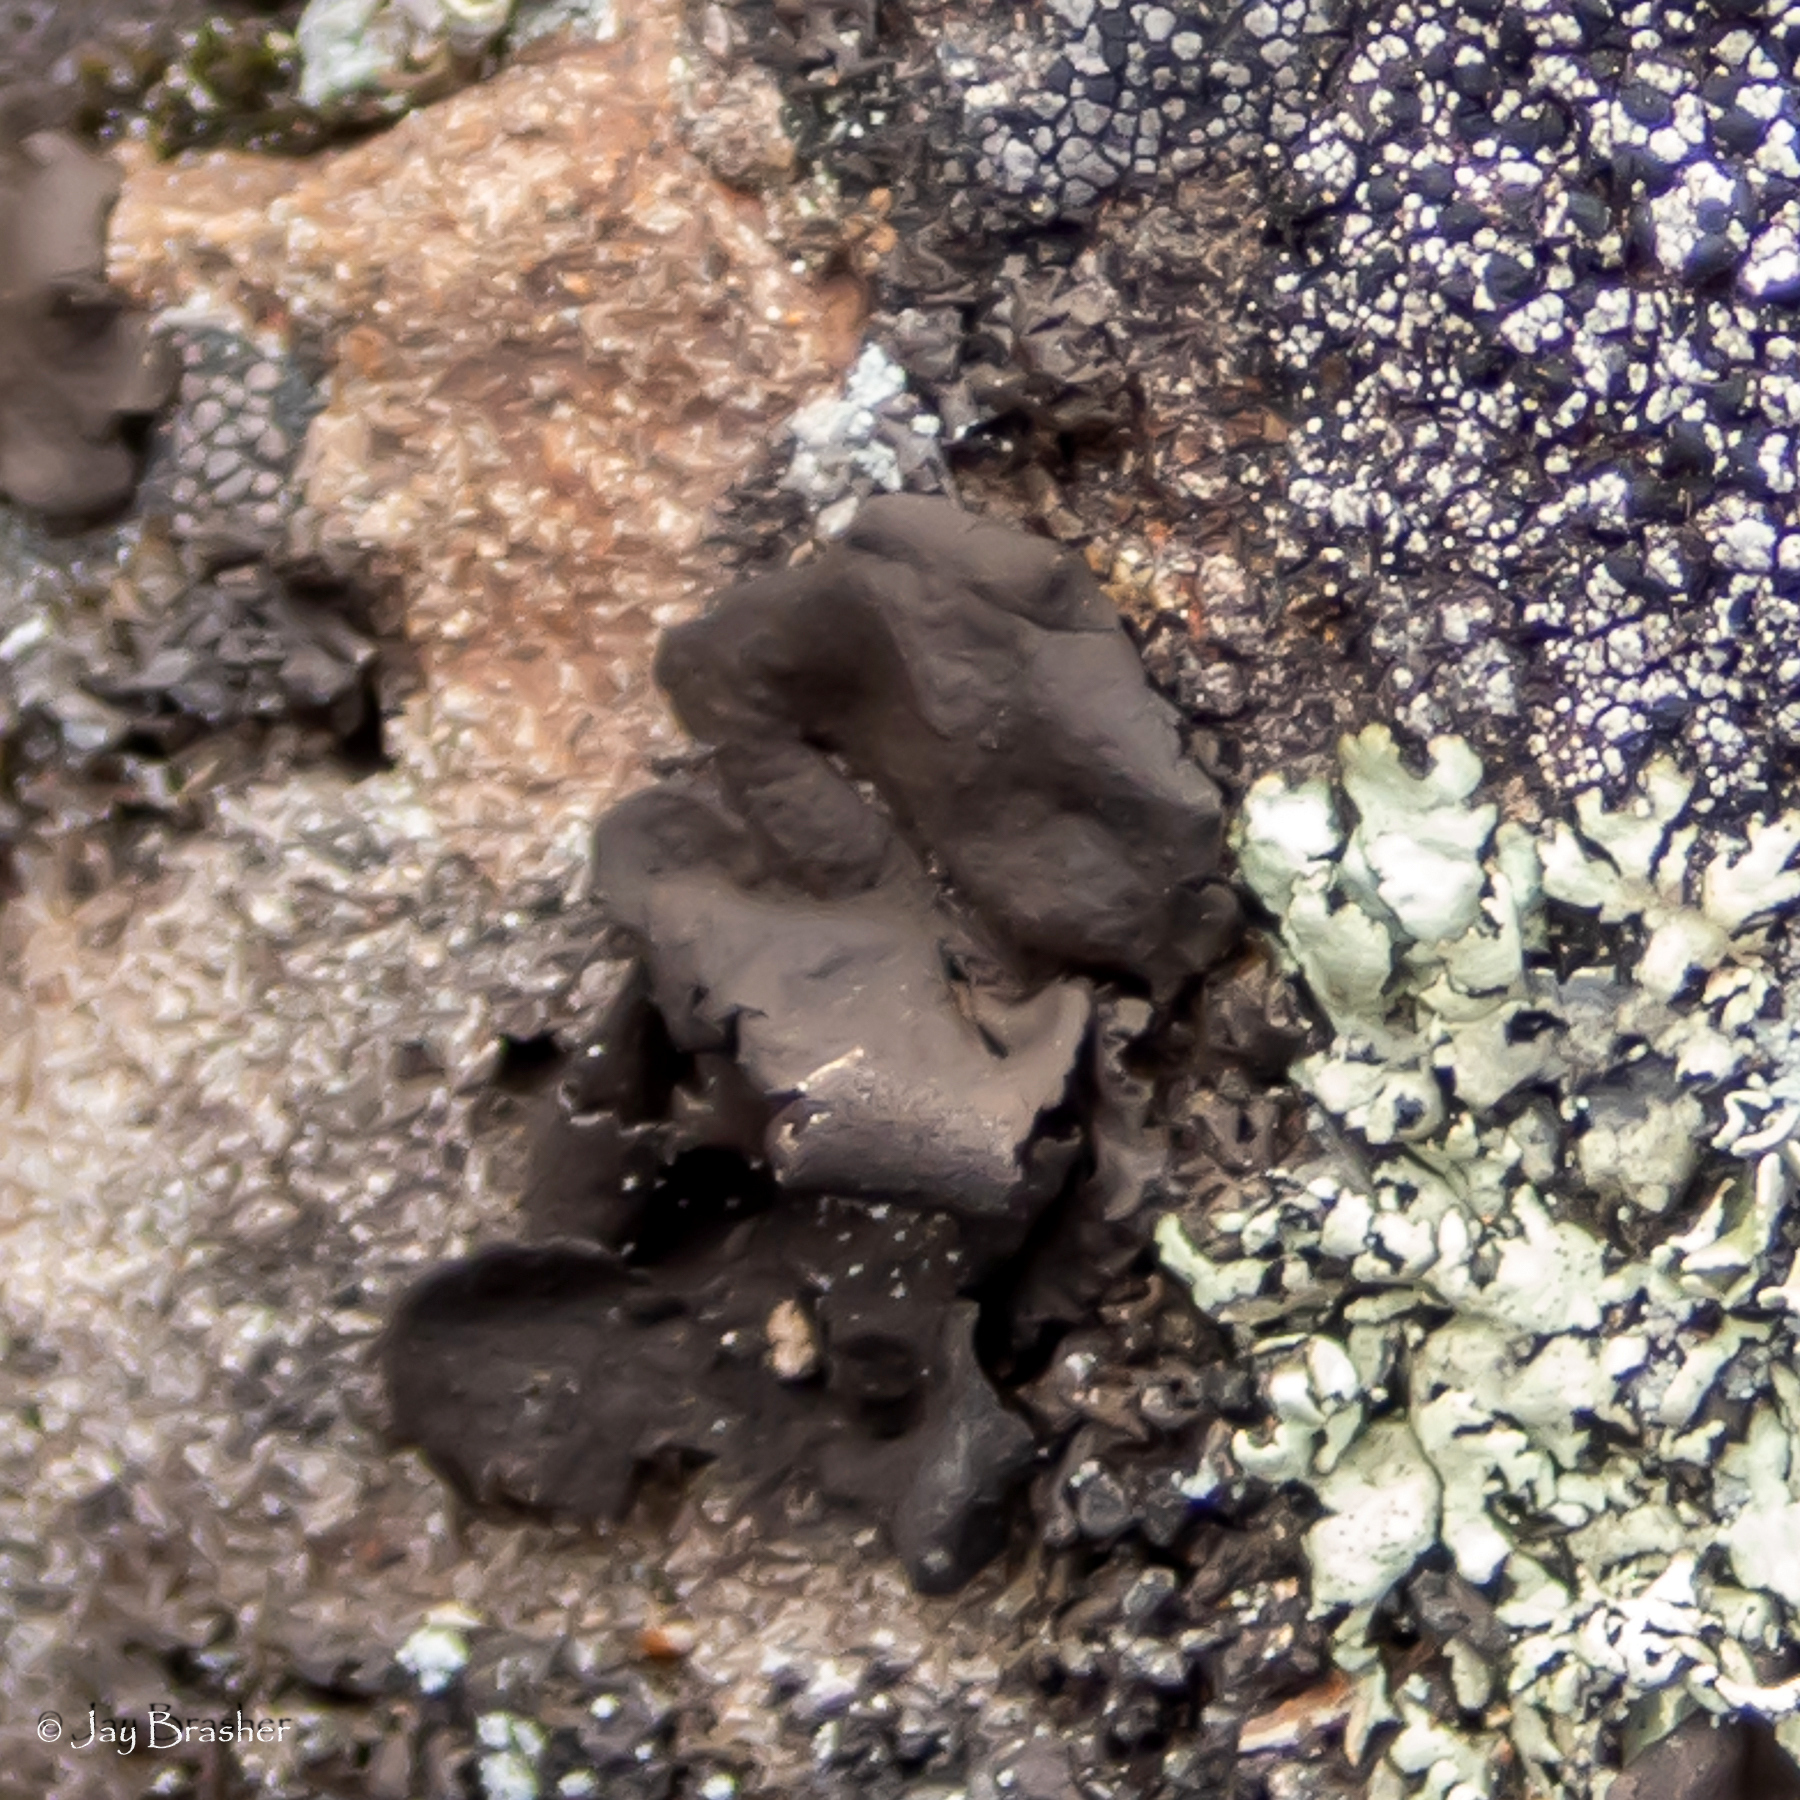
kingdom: Fungi
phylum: Ascomycota
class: Lecanoromycetes
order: Umbilicariales
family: Umbilicariaceae
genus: Umbilicaria
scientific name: Umbilicaria muhlenbergii
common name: Lesser rocktripe
